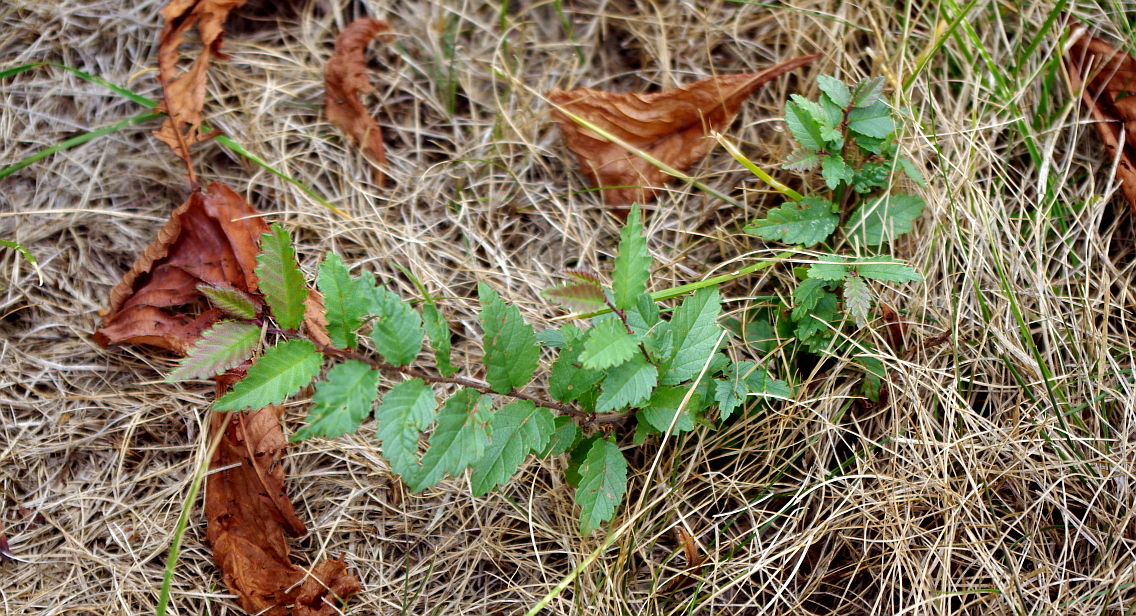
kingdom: Plantae
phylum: Tracheophyta
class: Magnoliopsida
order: Rosales
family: Ulmaceae
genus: Ulmus
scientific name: Ulmus pumila
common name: Siberian elm
